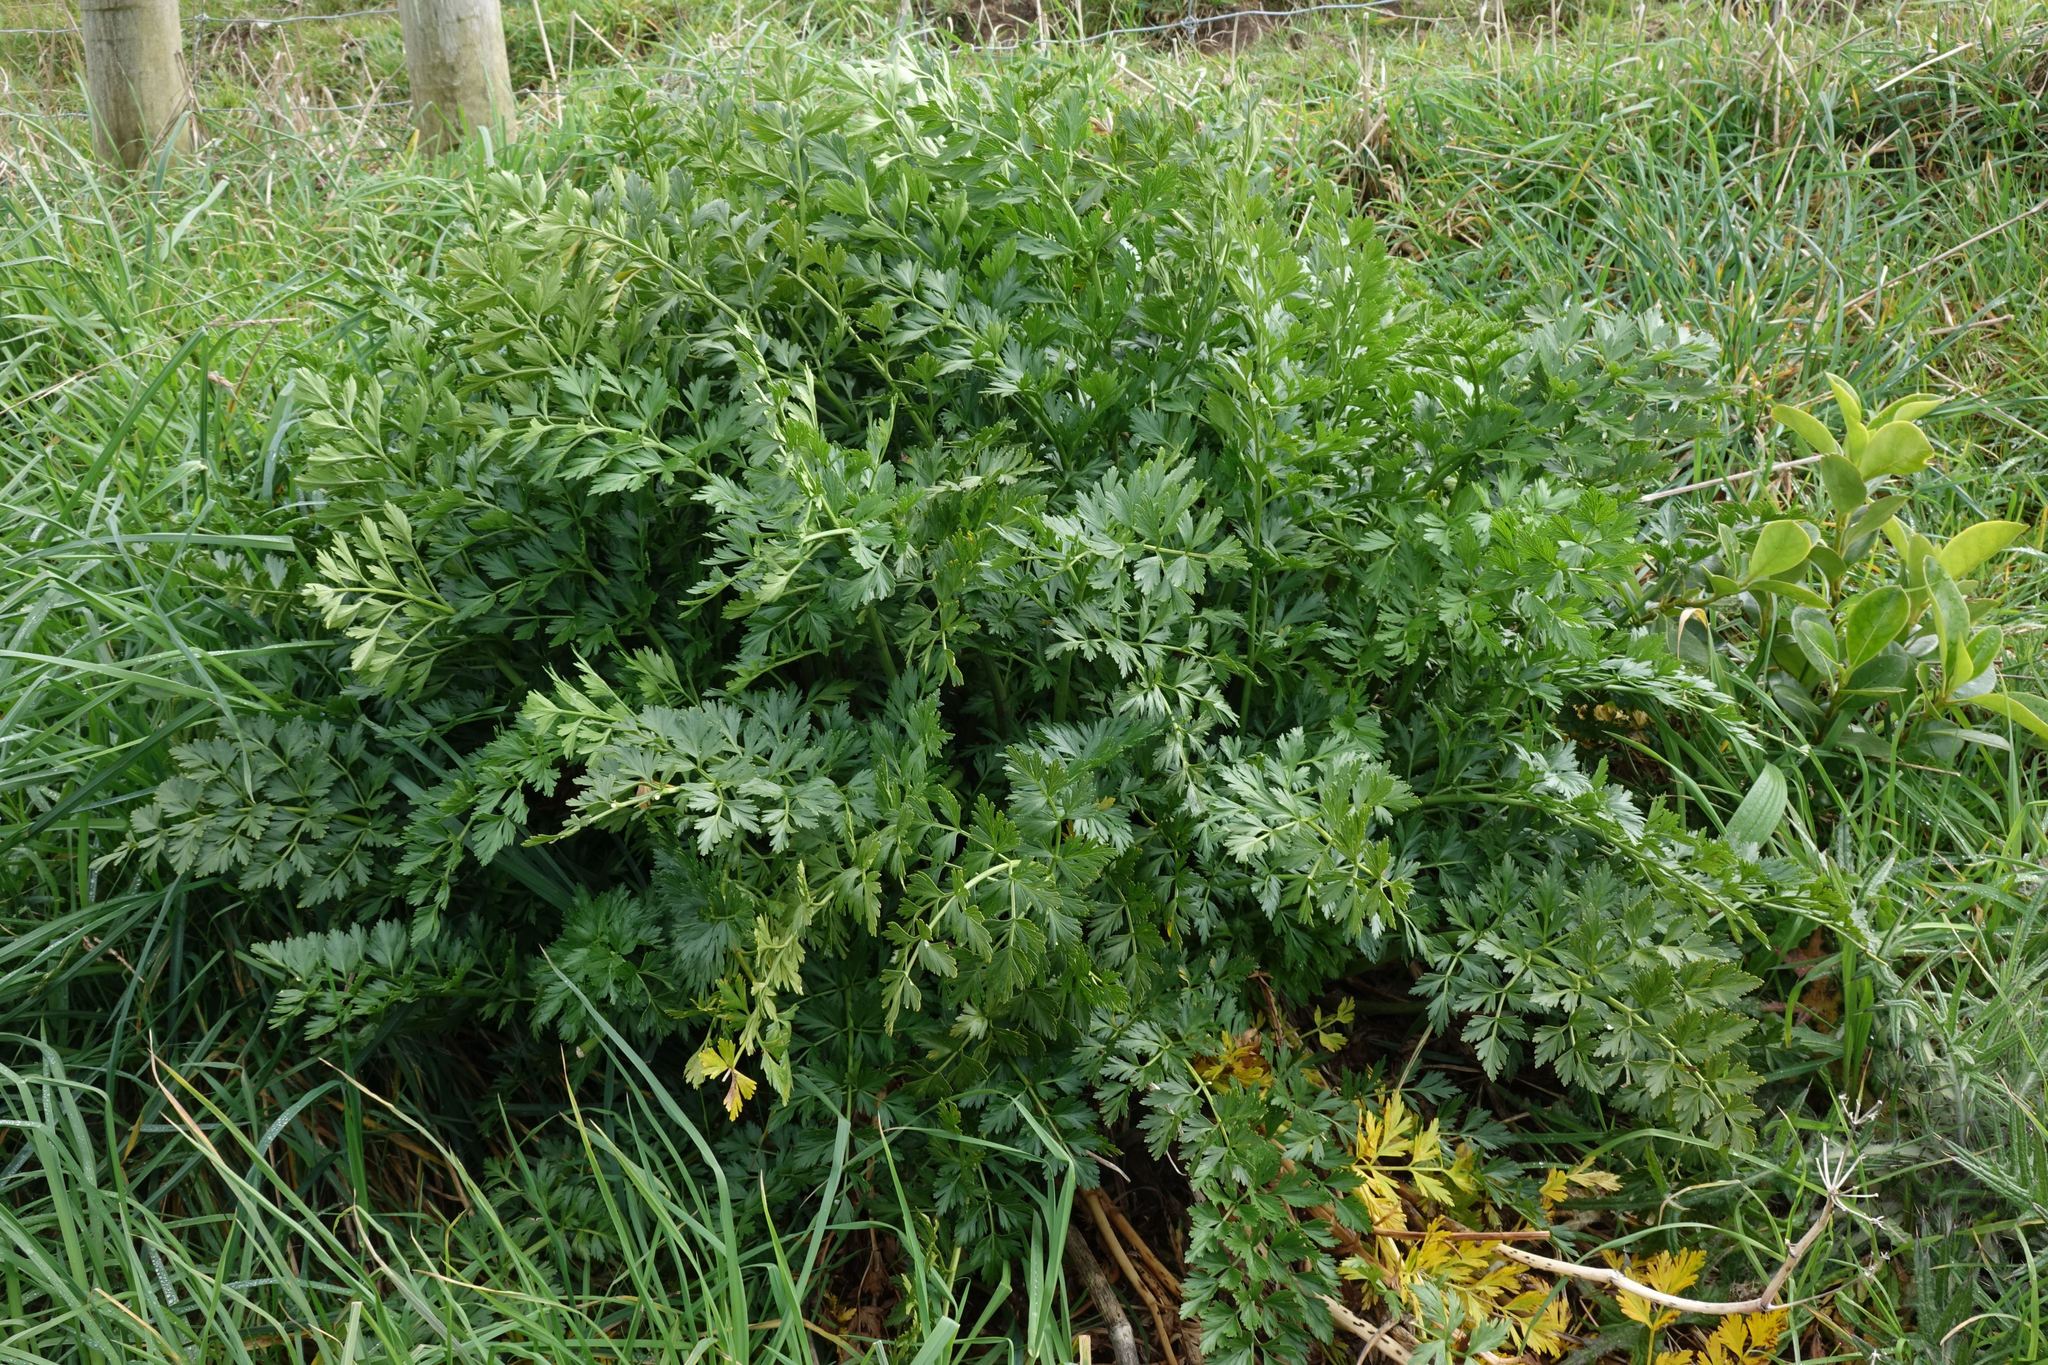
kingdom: Plantae
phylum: Tracheophyta
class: Magnoliopsida
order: Apiales
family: Apiaceae
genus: Anisotome
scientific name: Anisotome lyallii
